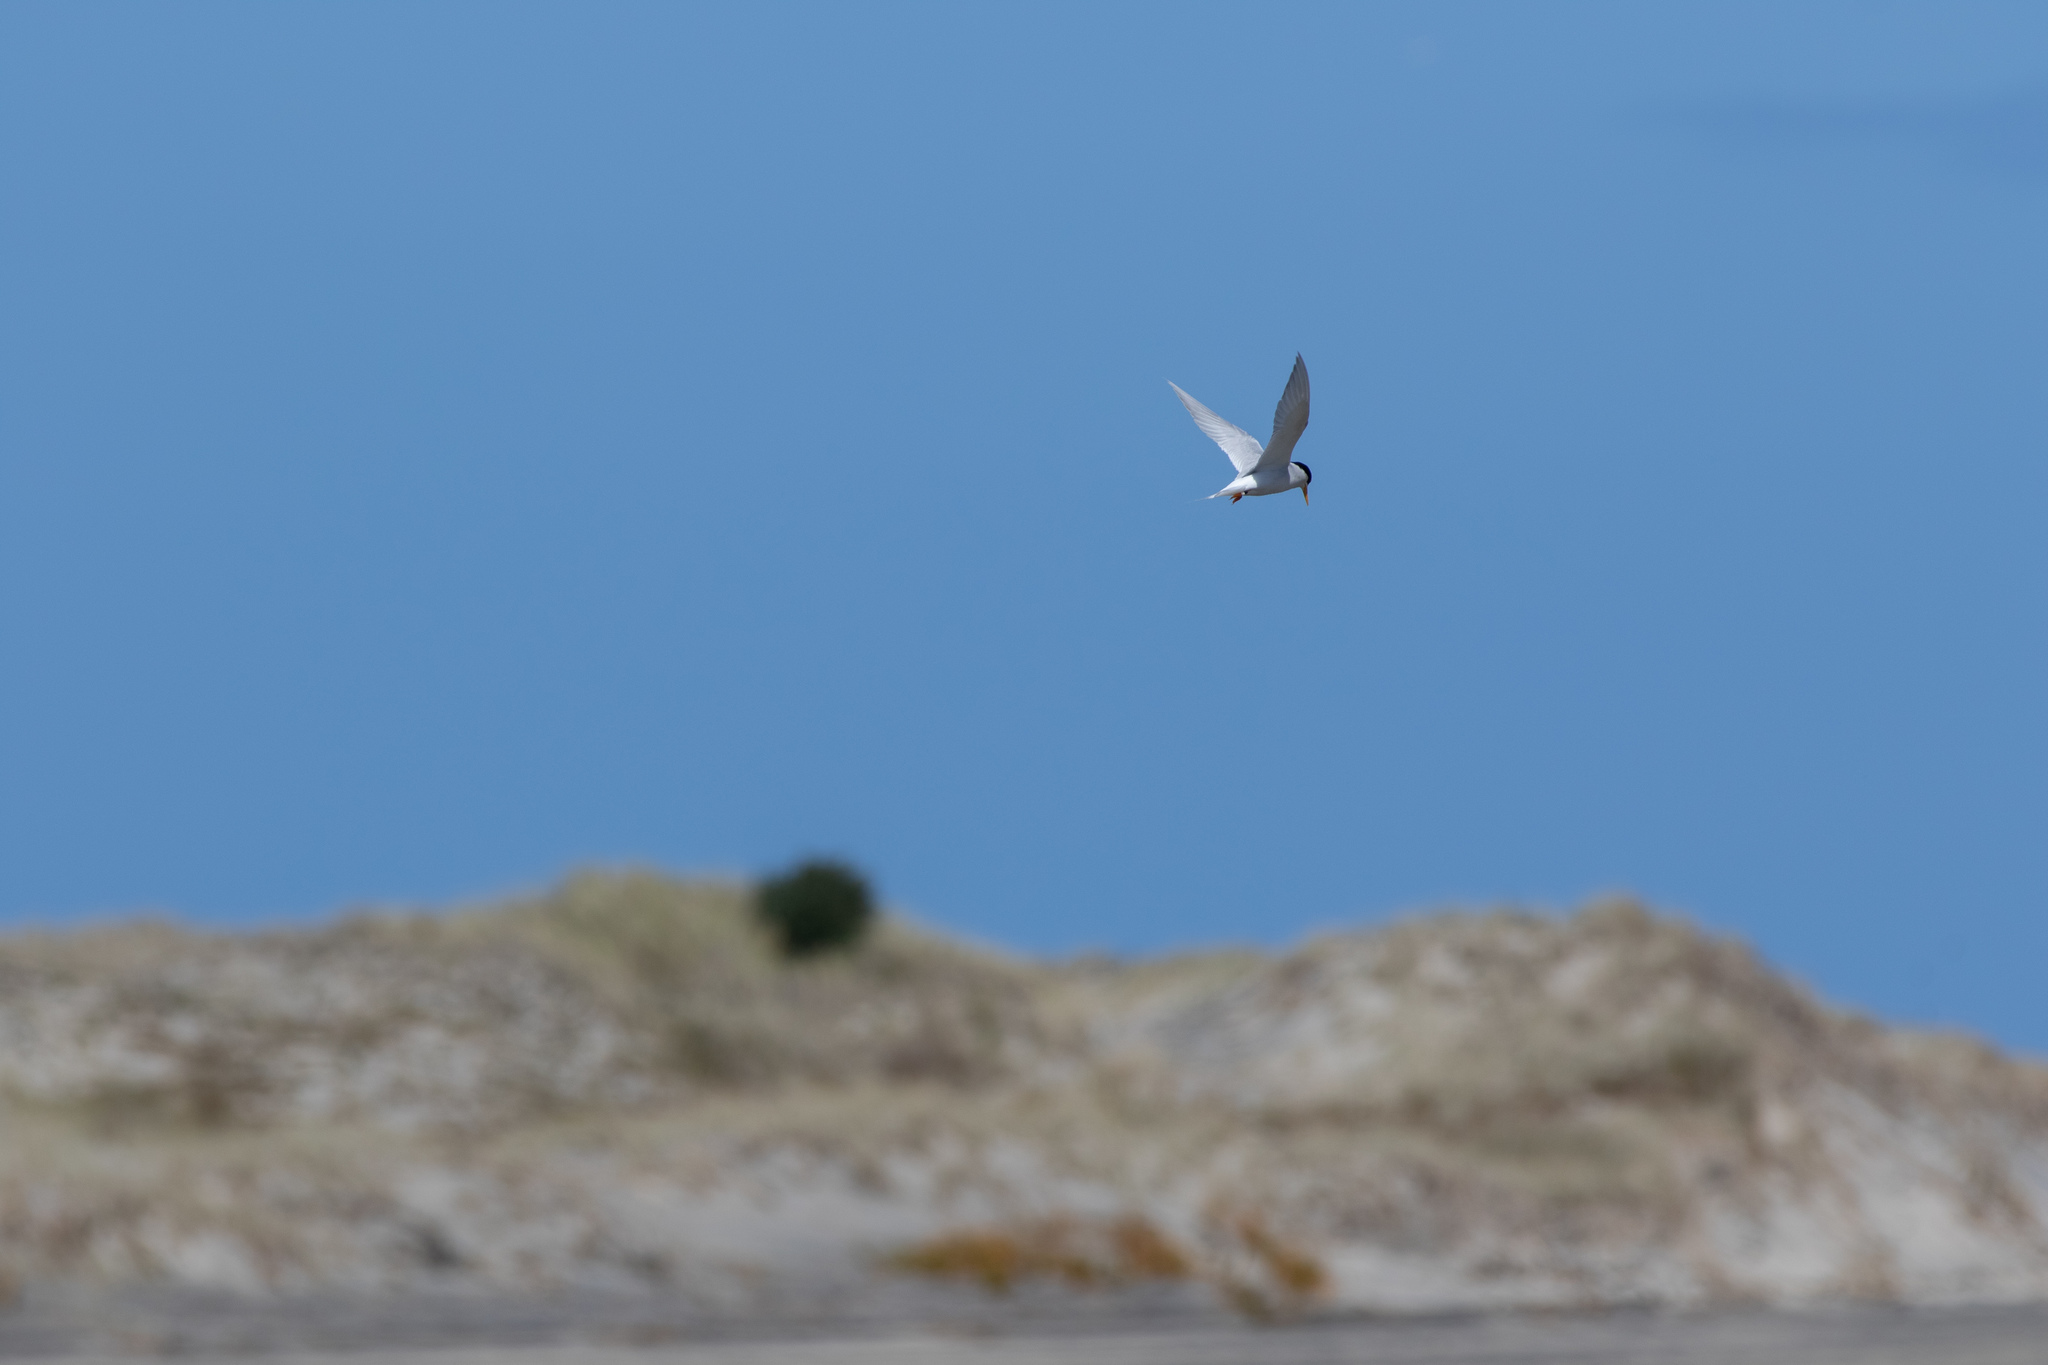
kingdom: Animalia
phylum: Chordata
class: Aves
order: Charadriiformes
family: Laridae
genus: Sternula
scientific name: Sternula nereis
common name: Fairy tern
